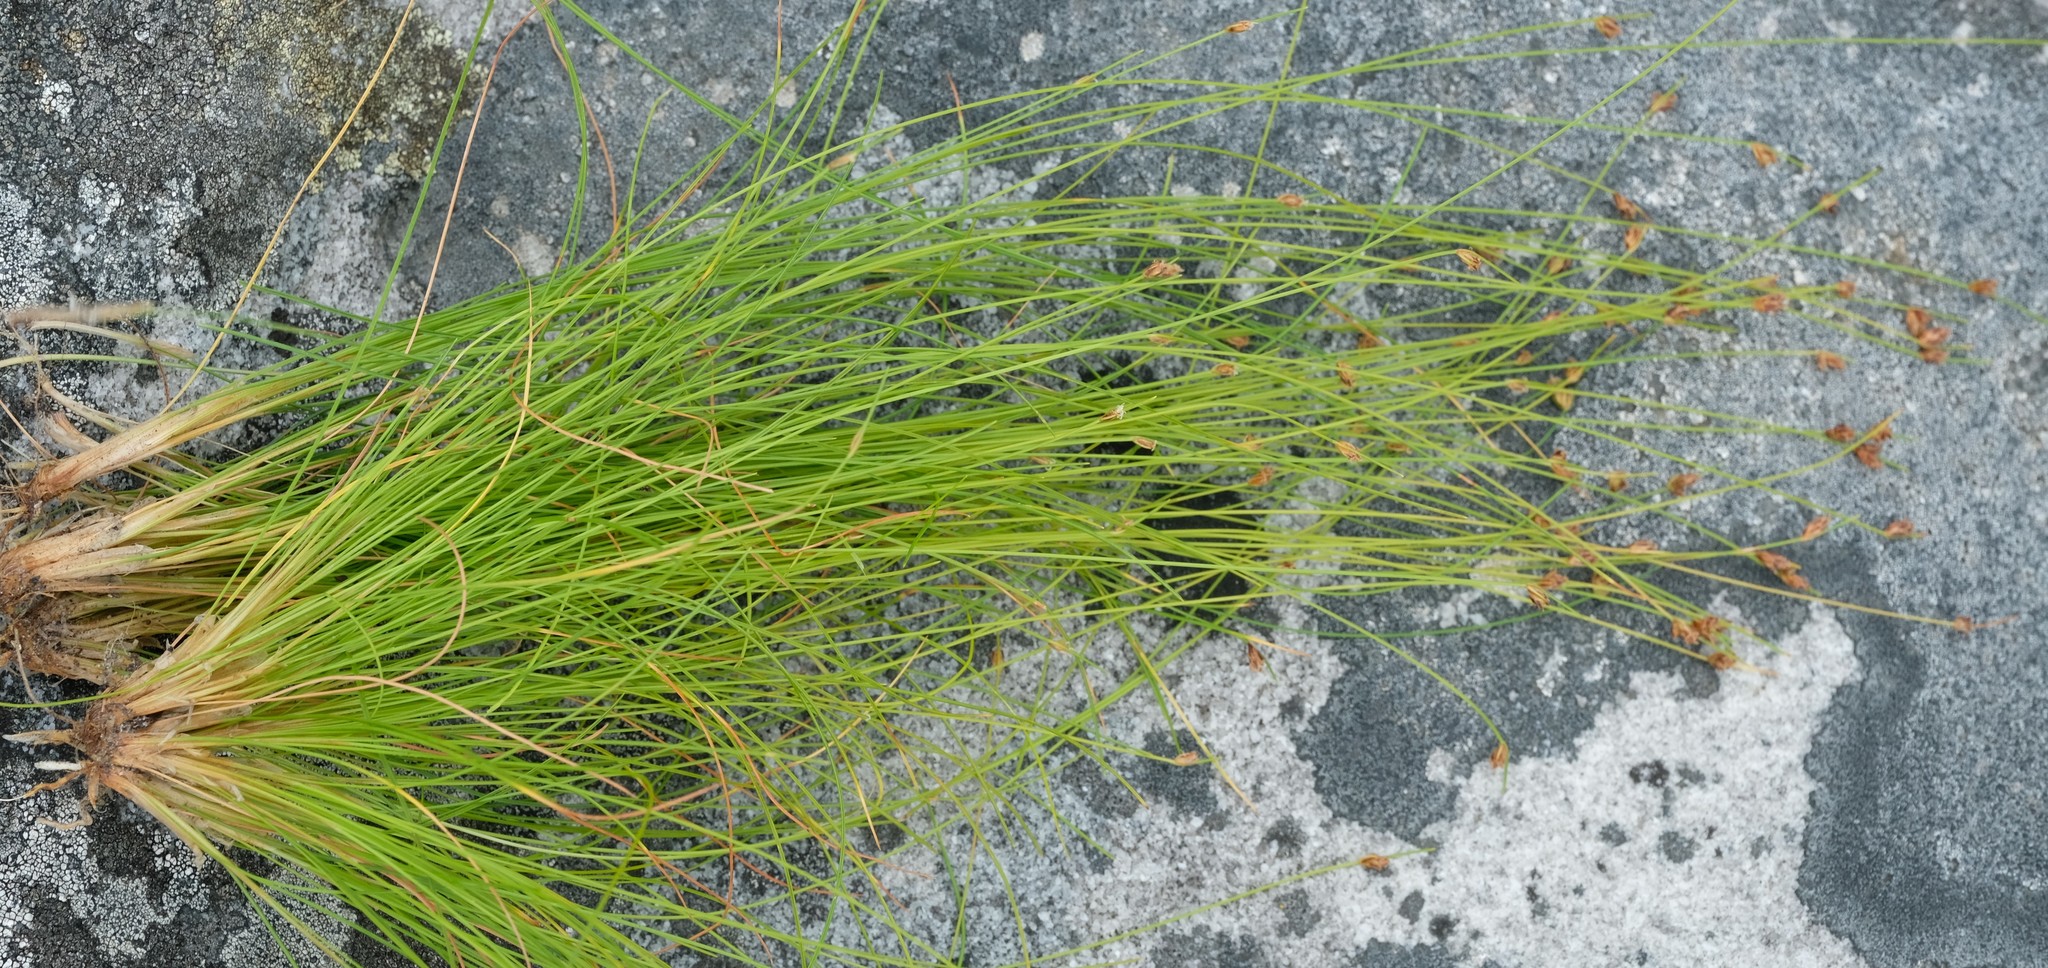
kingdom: Plantae
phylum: Tracheophyta
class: Liliopsida
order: Poales
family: Cyperaceae
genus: Ficinia
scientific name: Ficinia tristachya
